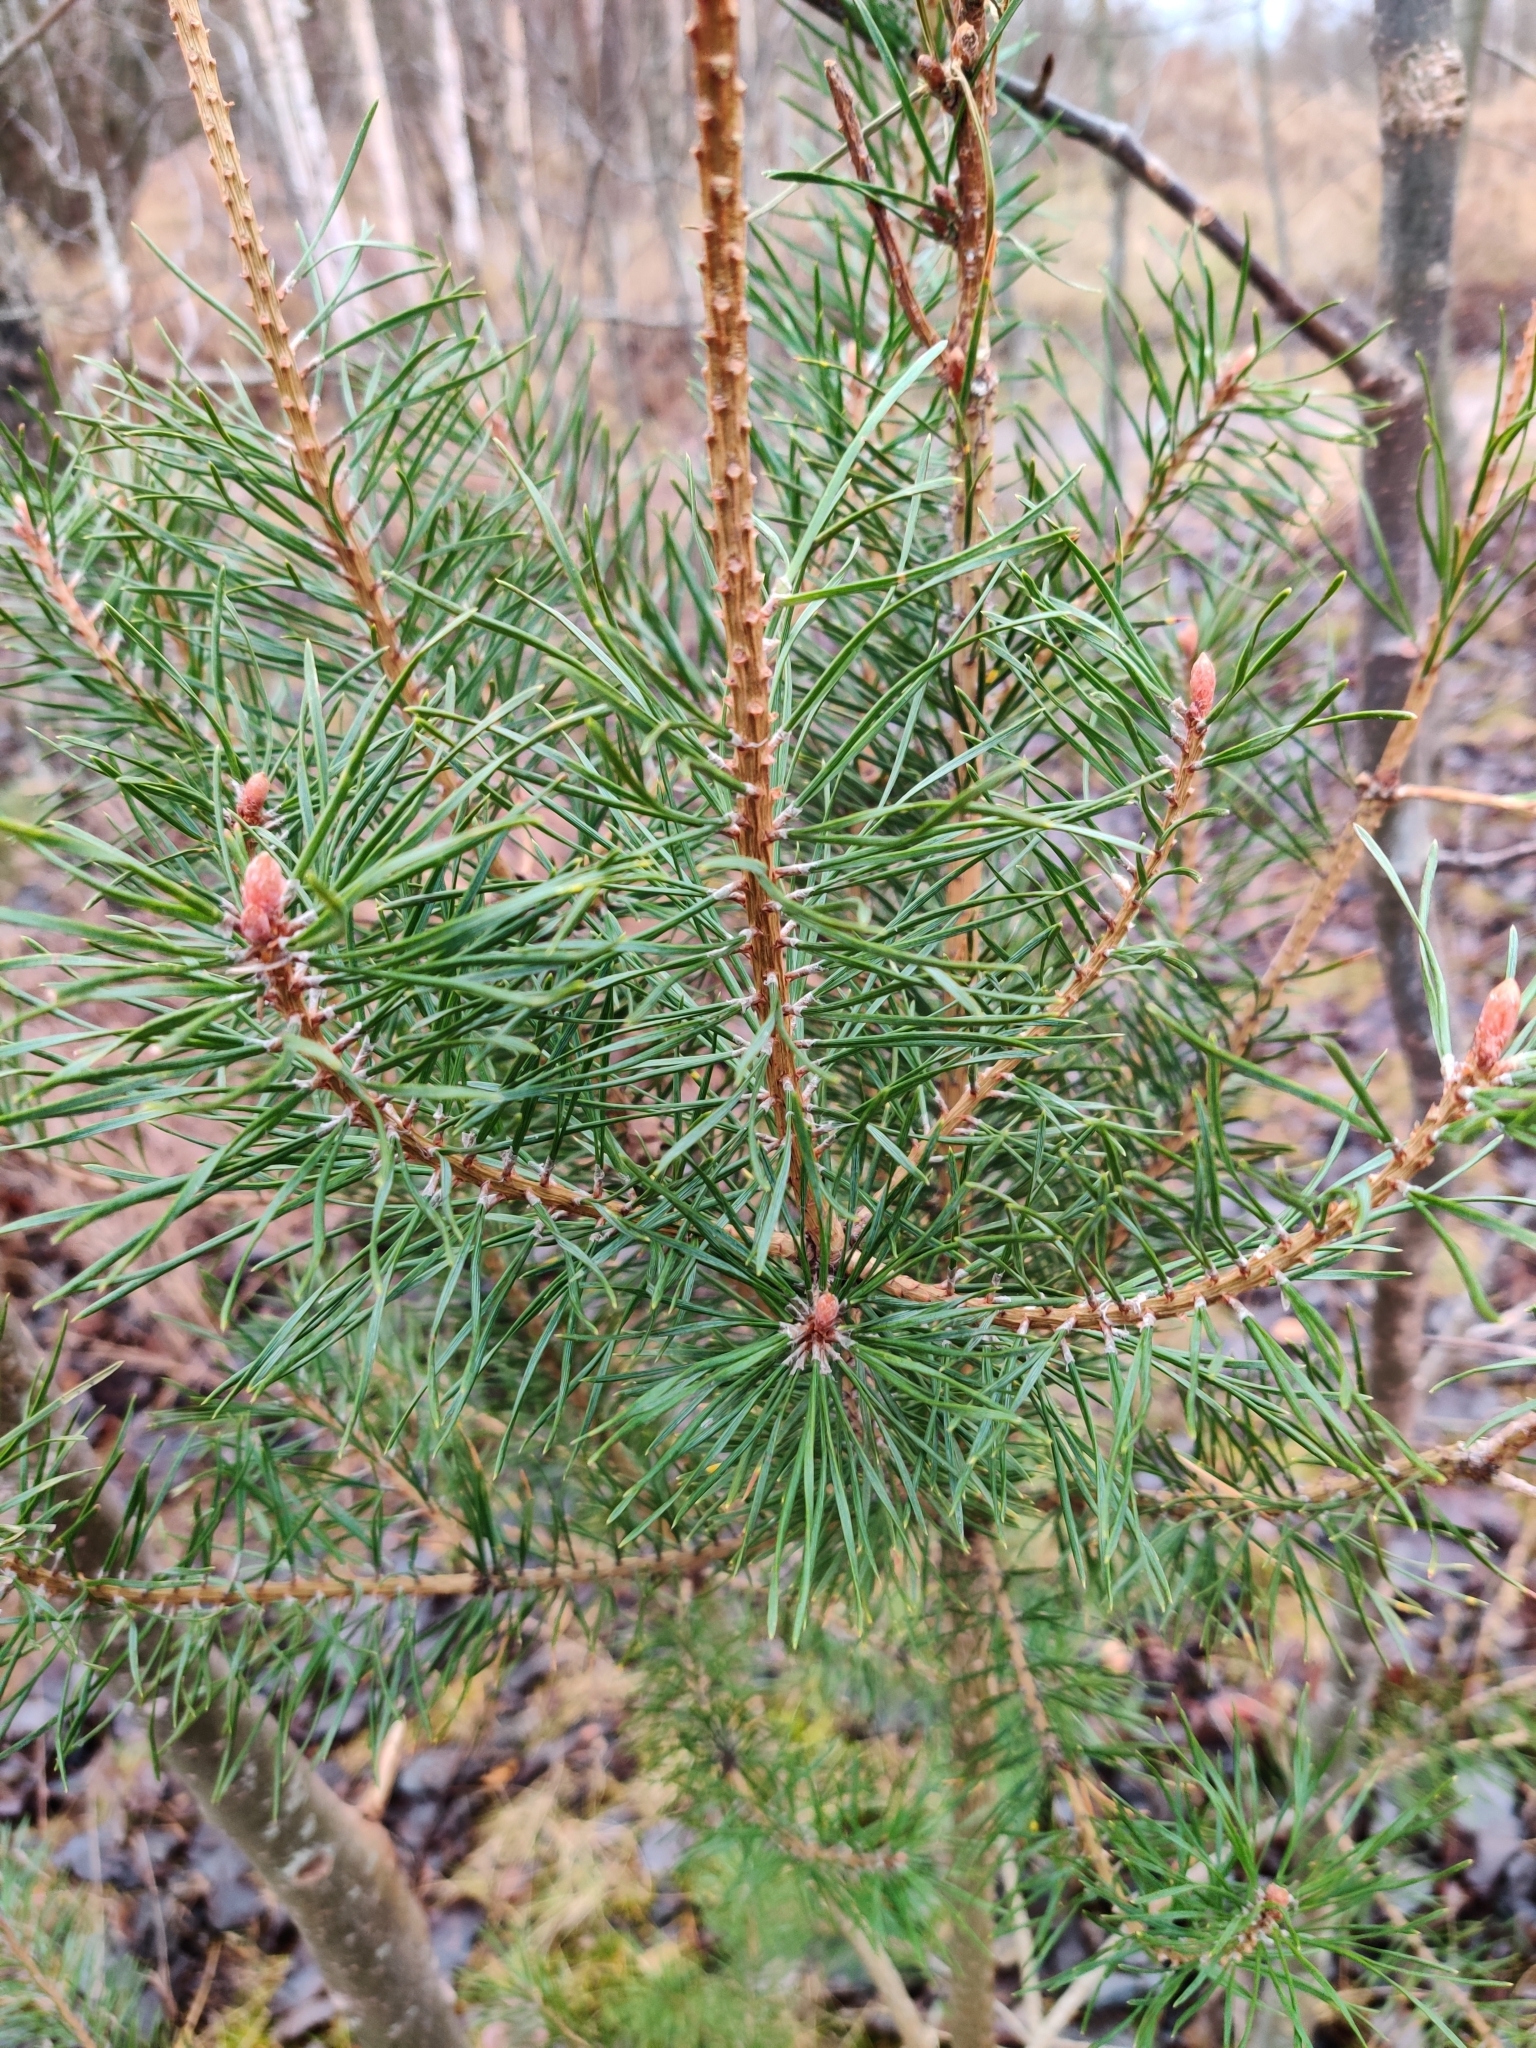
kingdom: Plantae
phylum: Tracheophyta
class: Pinopsida
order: Pinales
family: Pinaceae
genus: Pinus
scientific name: Pinus sylvestris
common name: Scots pine
